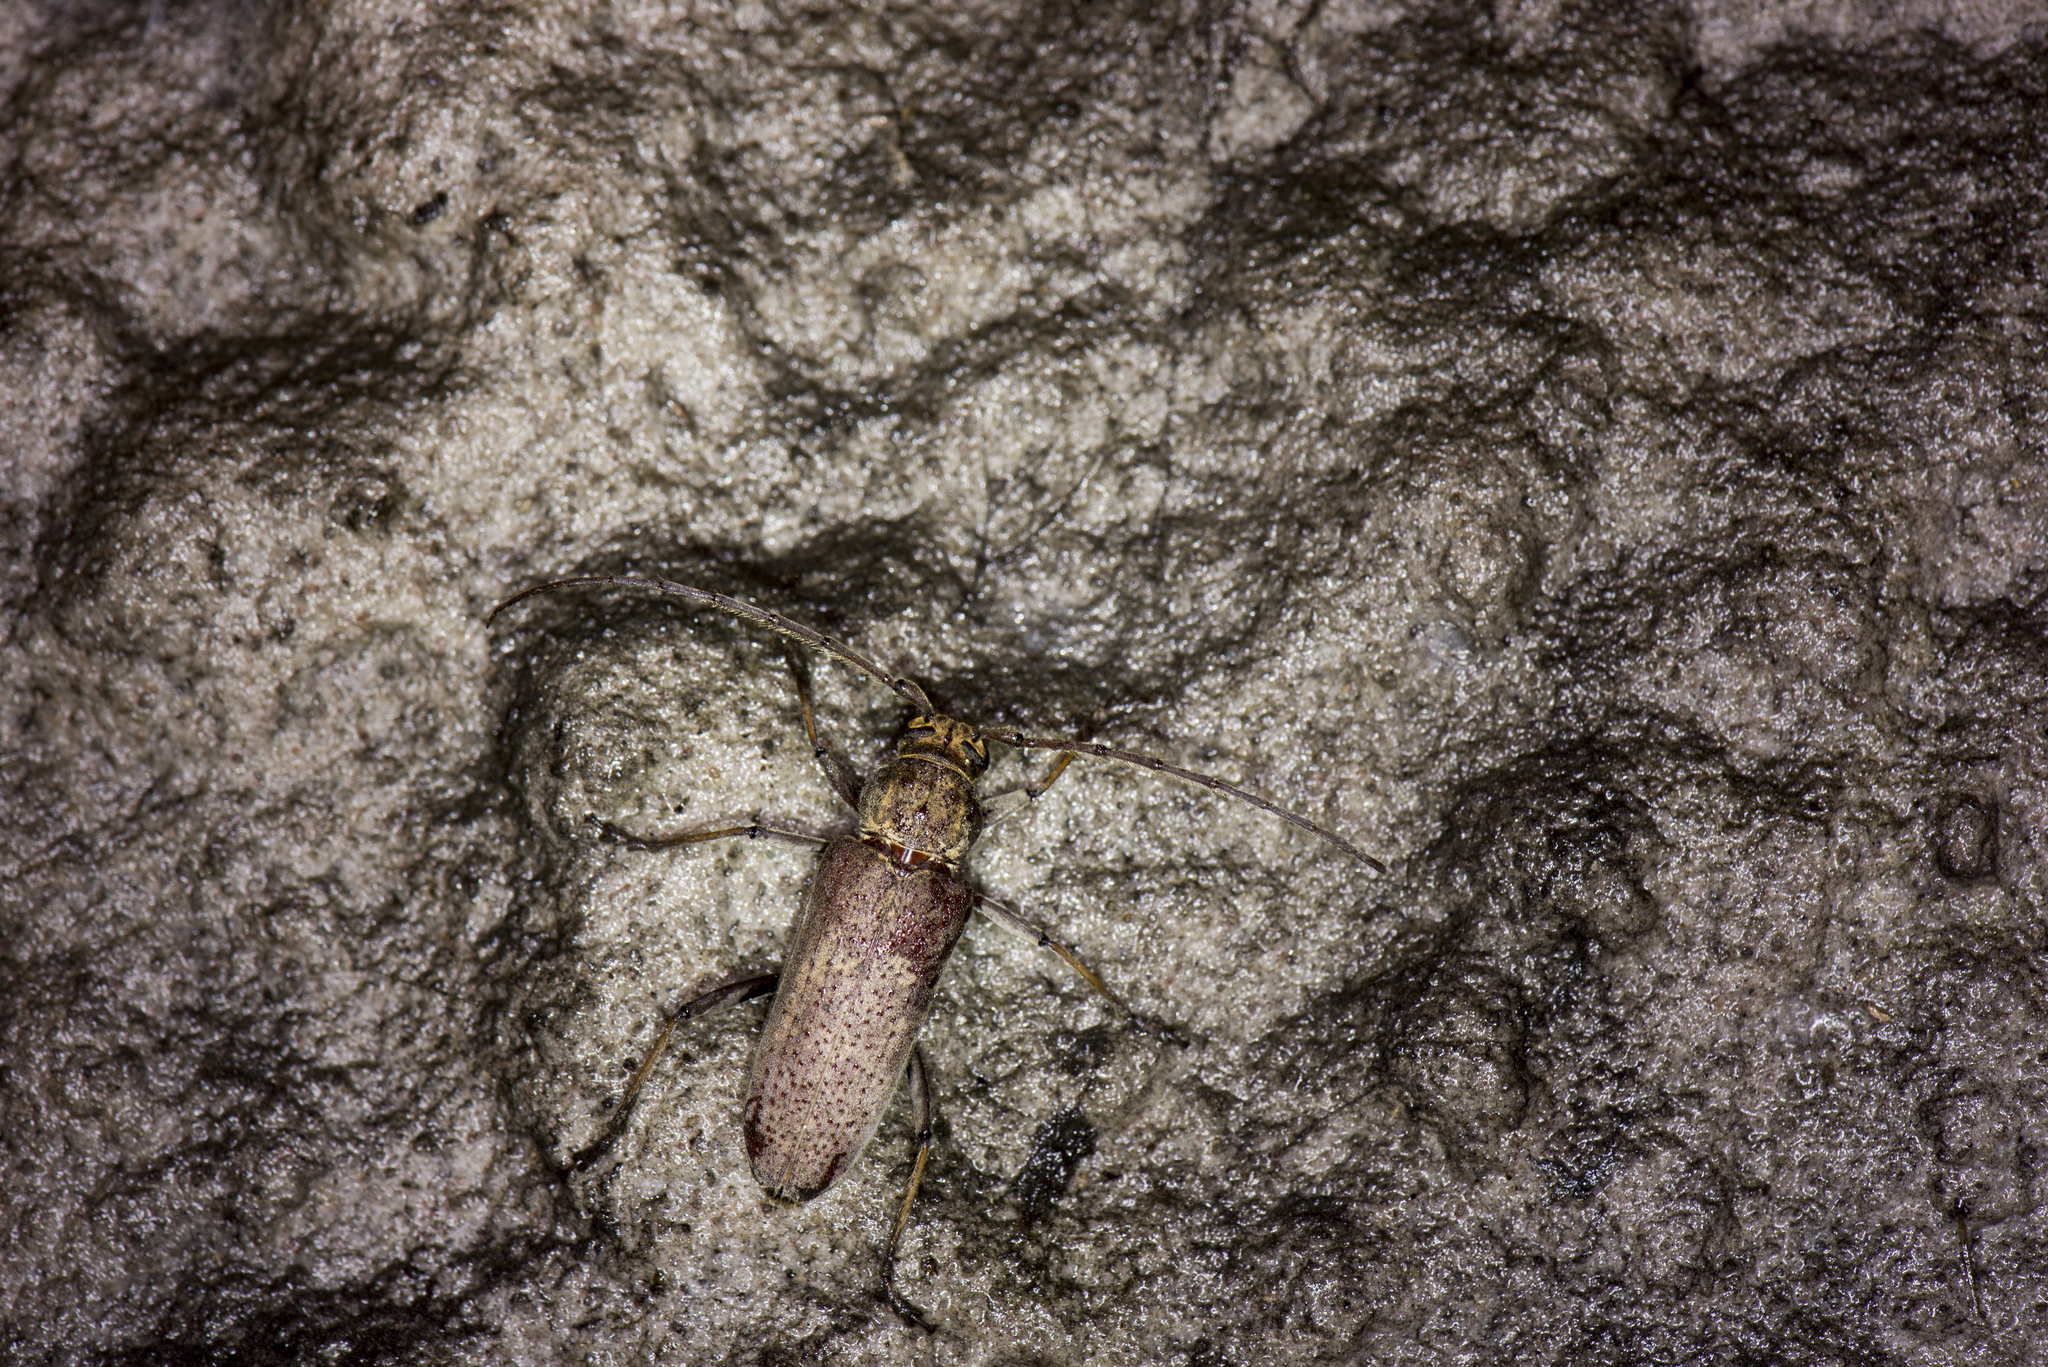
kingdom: Animalia
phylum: Arthropoda
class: Insecta
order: Coleoptera
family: Cerambycidae
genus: Stromatium
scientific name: Stromatium longicorne
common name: Long-horned beetle
